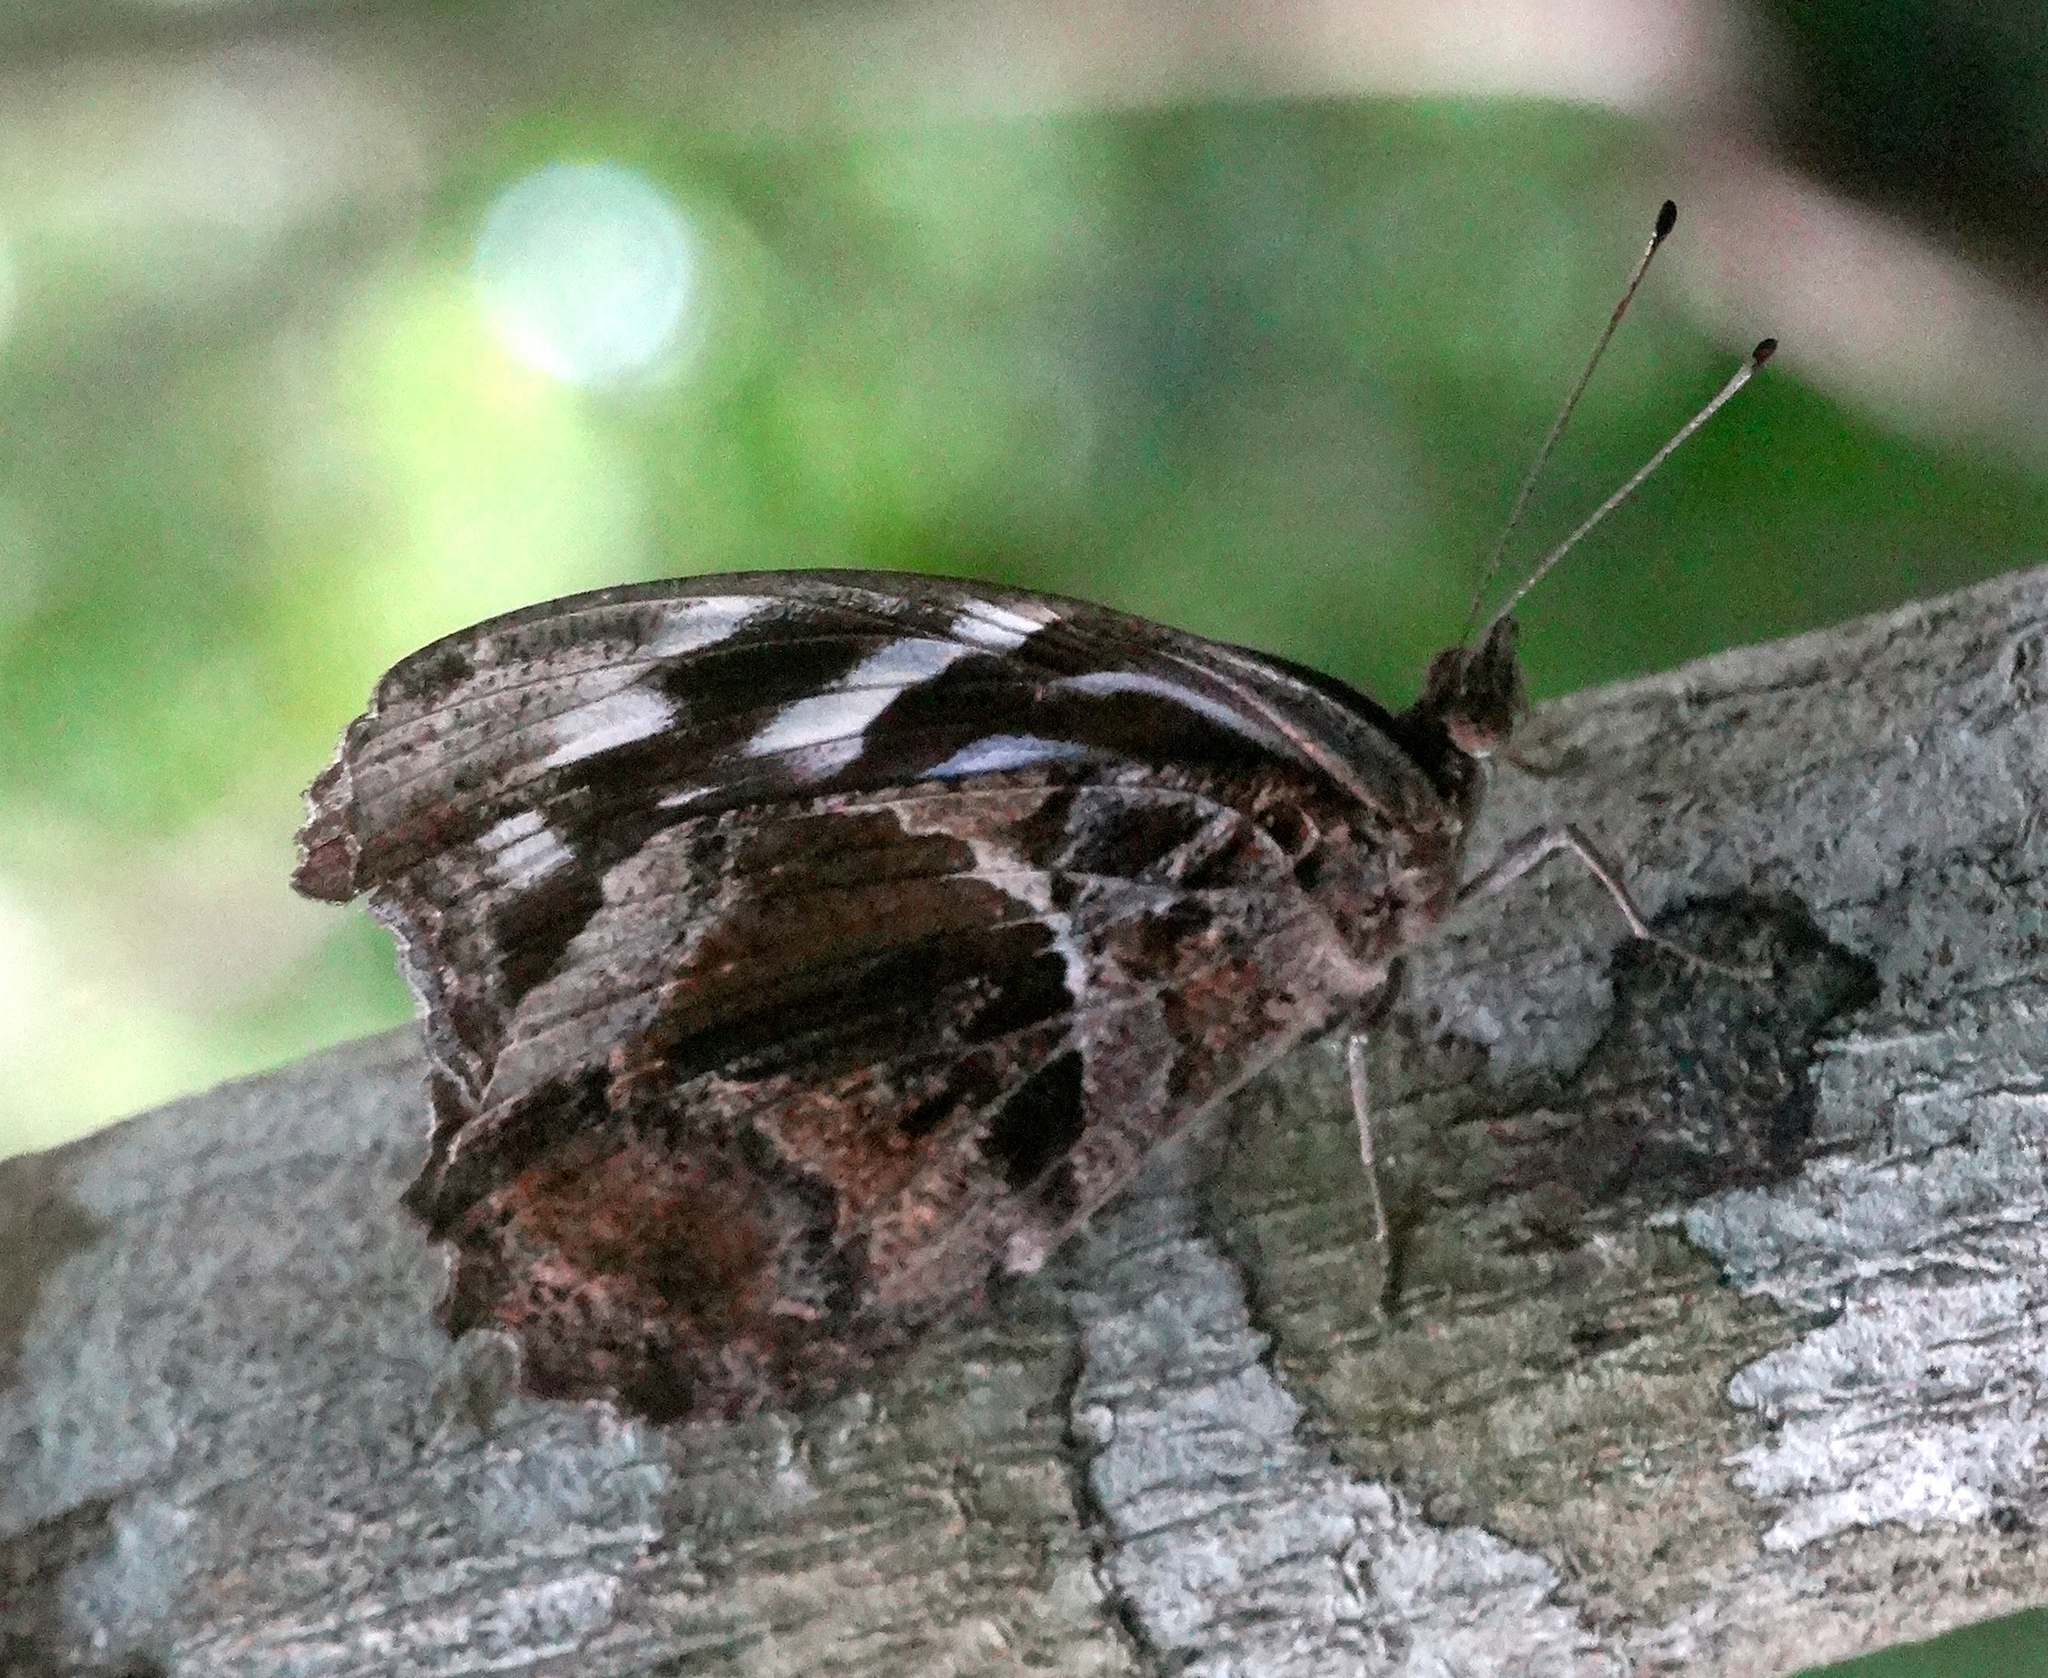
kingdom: Animalia
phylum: Arthropoda
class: Insecta
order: Lepidoptera
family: Nymphalidae
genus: Myscelia
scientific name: Myscelia cyananthe
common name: Blackened bluewing
